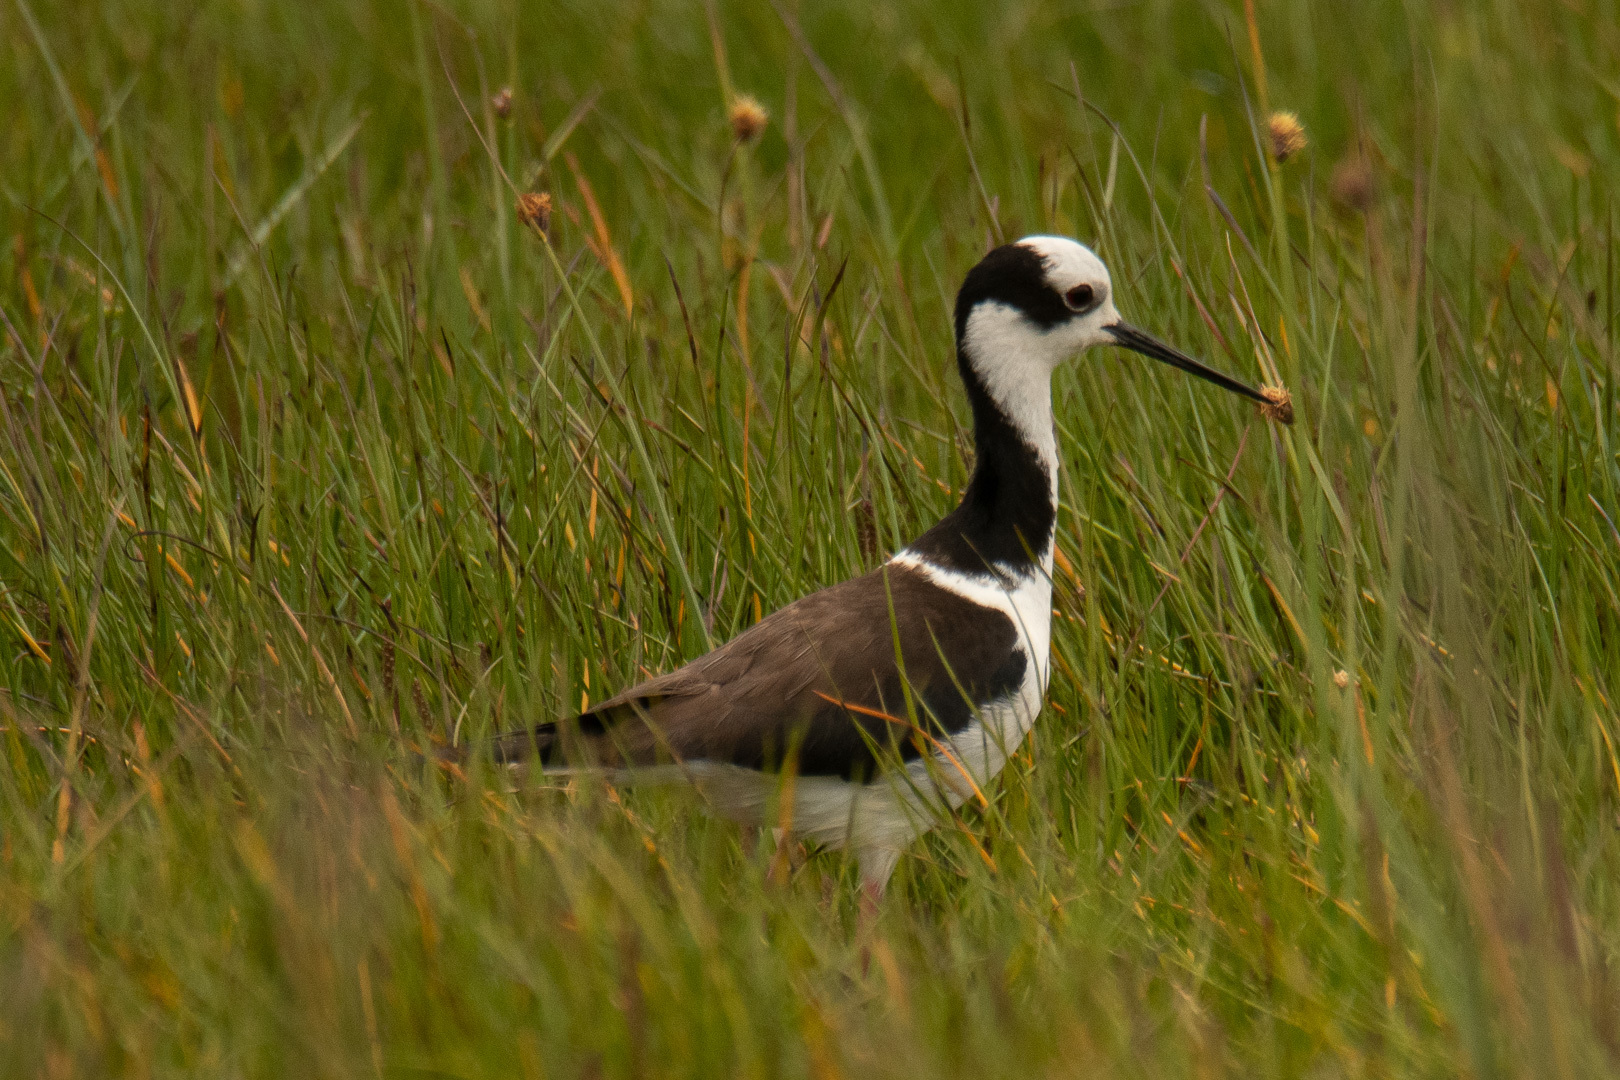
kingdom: Animalia
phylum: Chordata
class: Aves
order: Charadriiformes
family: Recurvirostridae
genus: Himantopus
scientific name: Himantopus mexicanus
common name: Black-necked stilt
